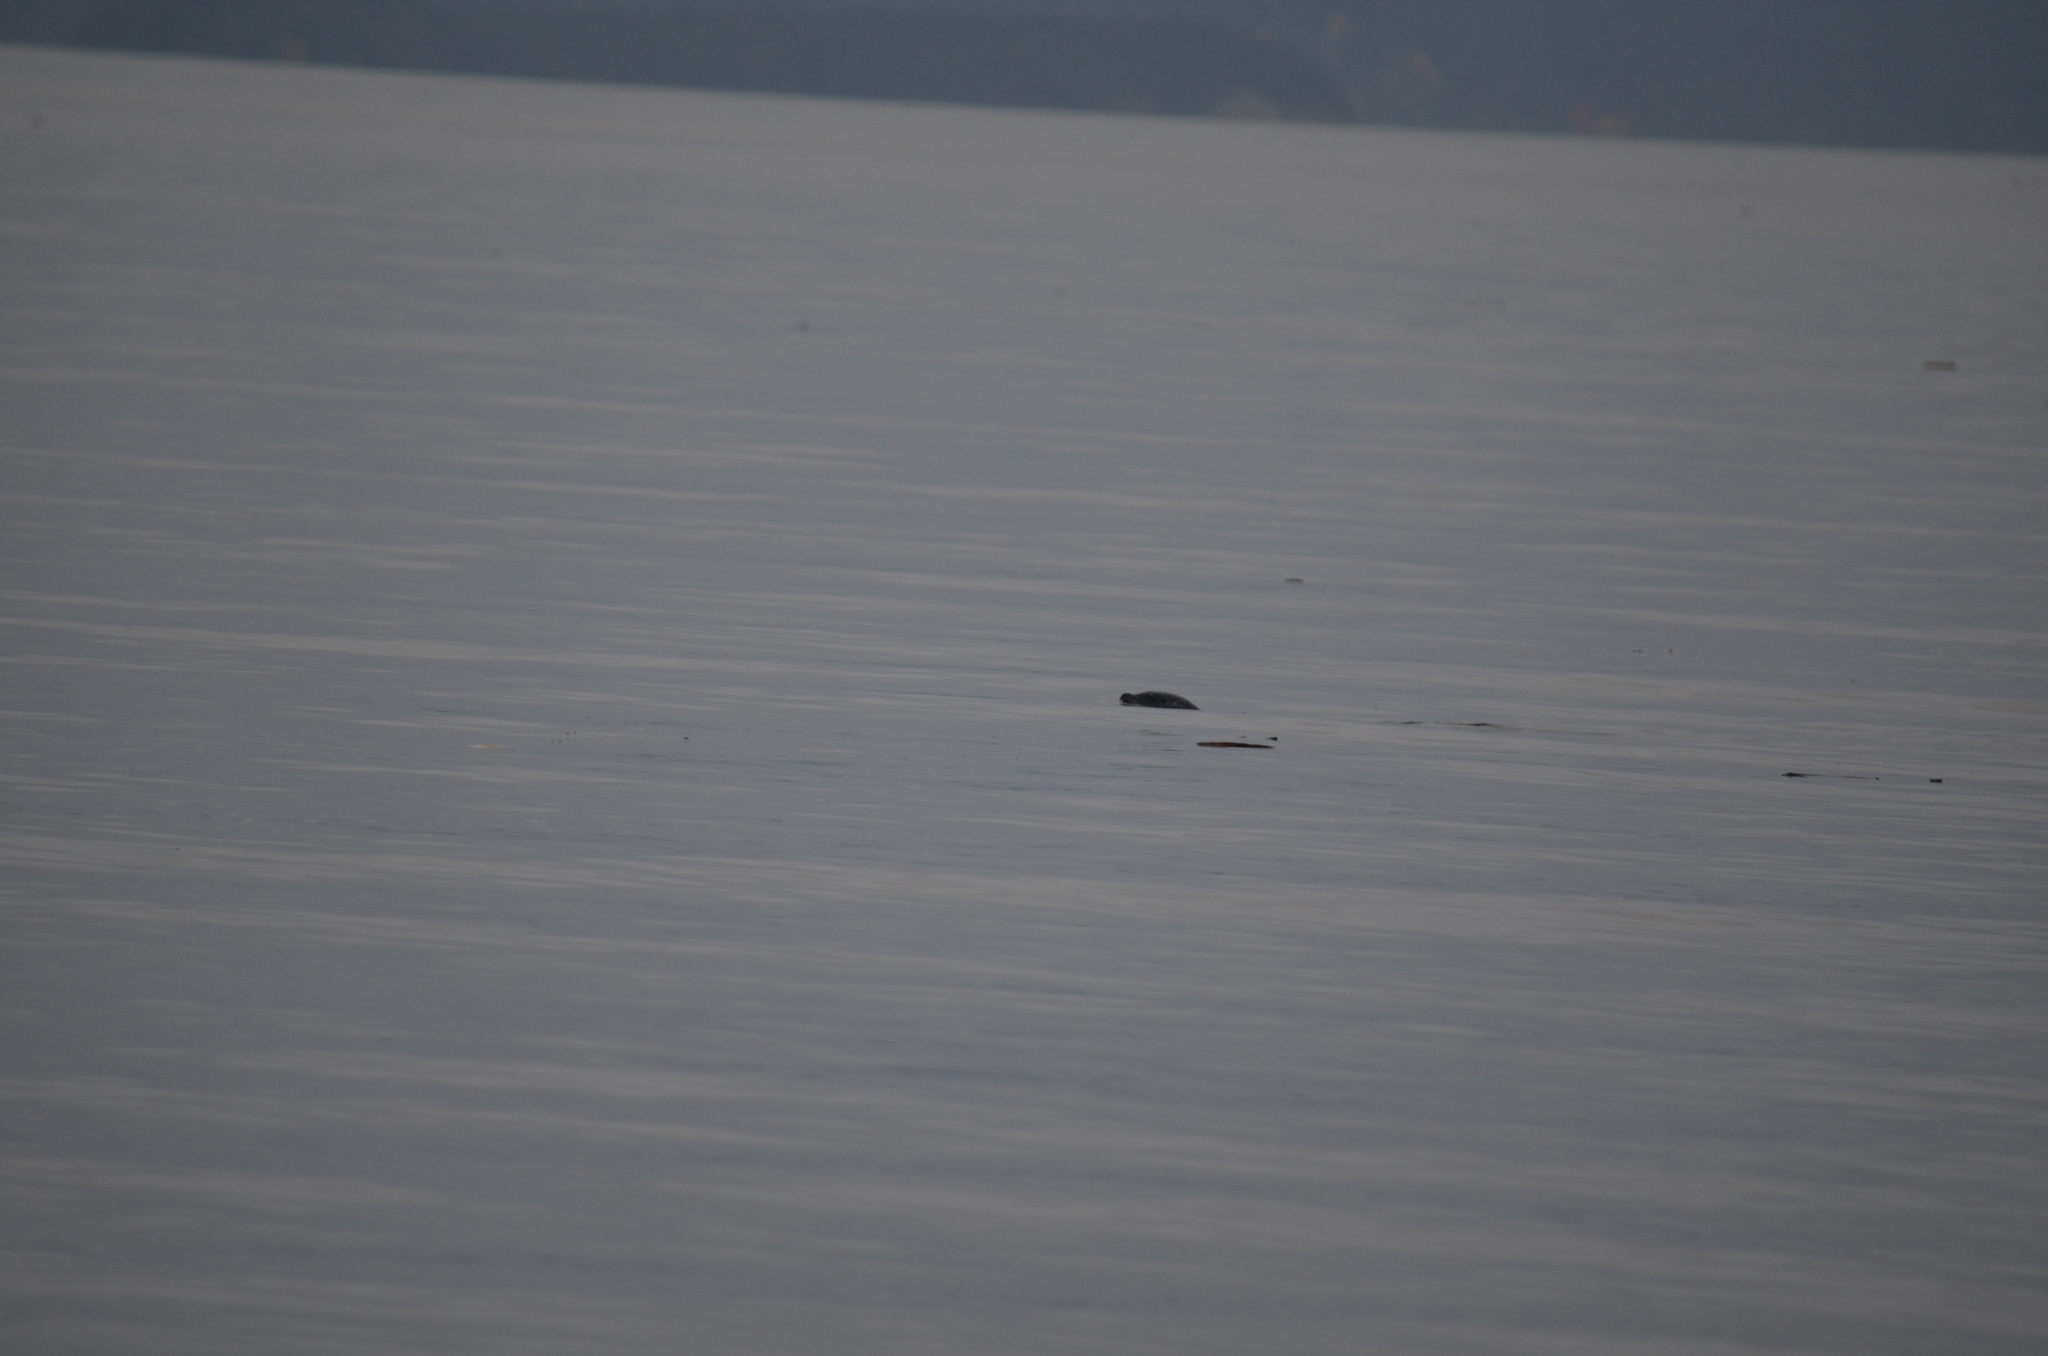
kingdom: Animalia
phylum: Chordata
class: Mammalia
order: Carnivora
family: Phocidae
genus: Phoca
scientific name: Phoca vitulina
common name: Harbor seal
